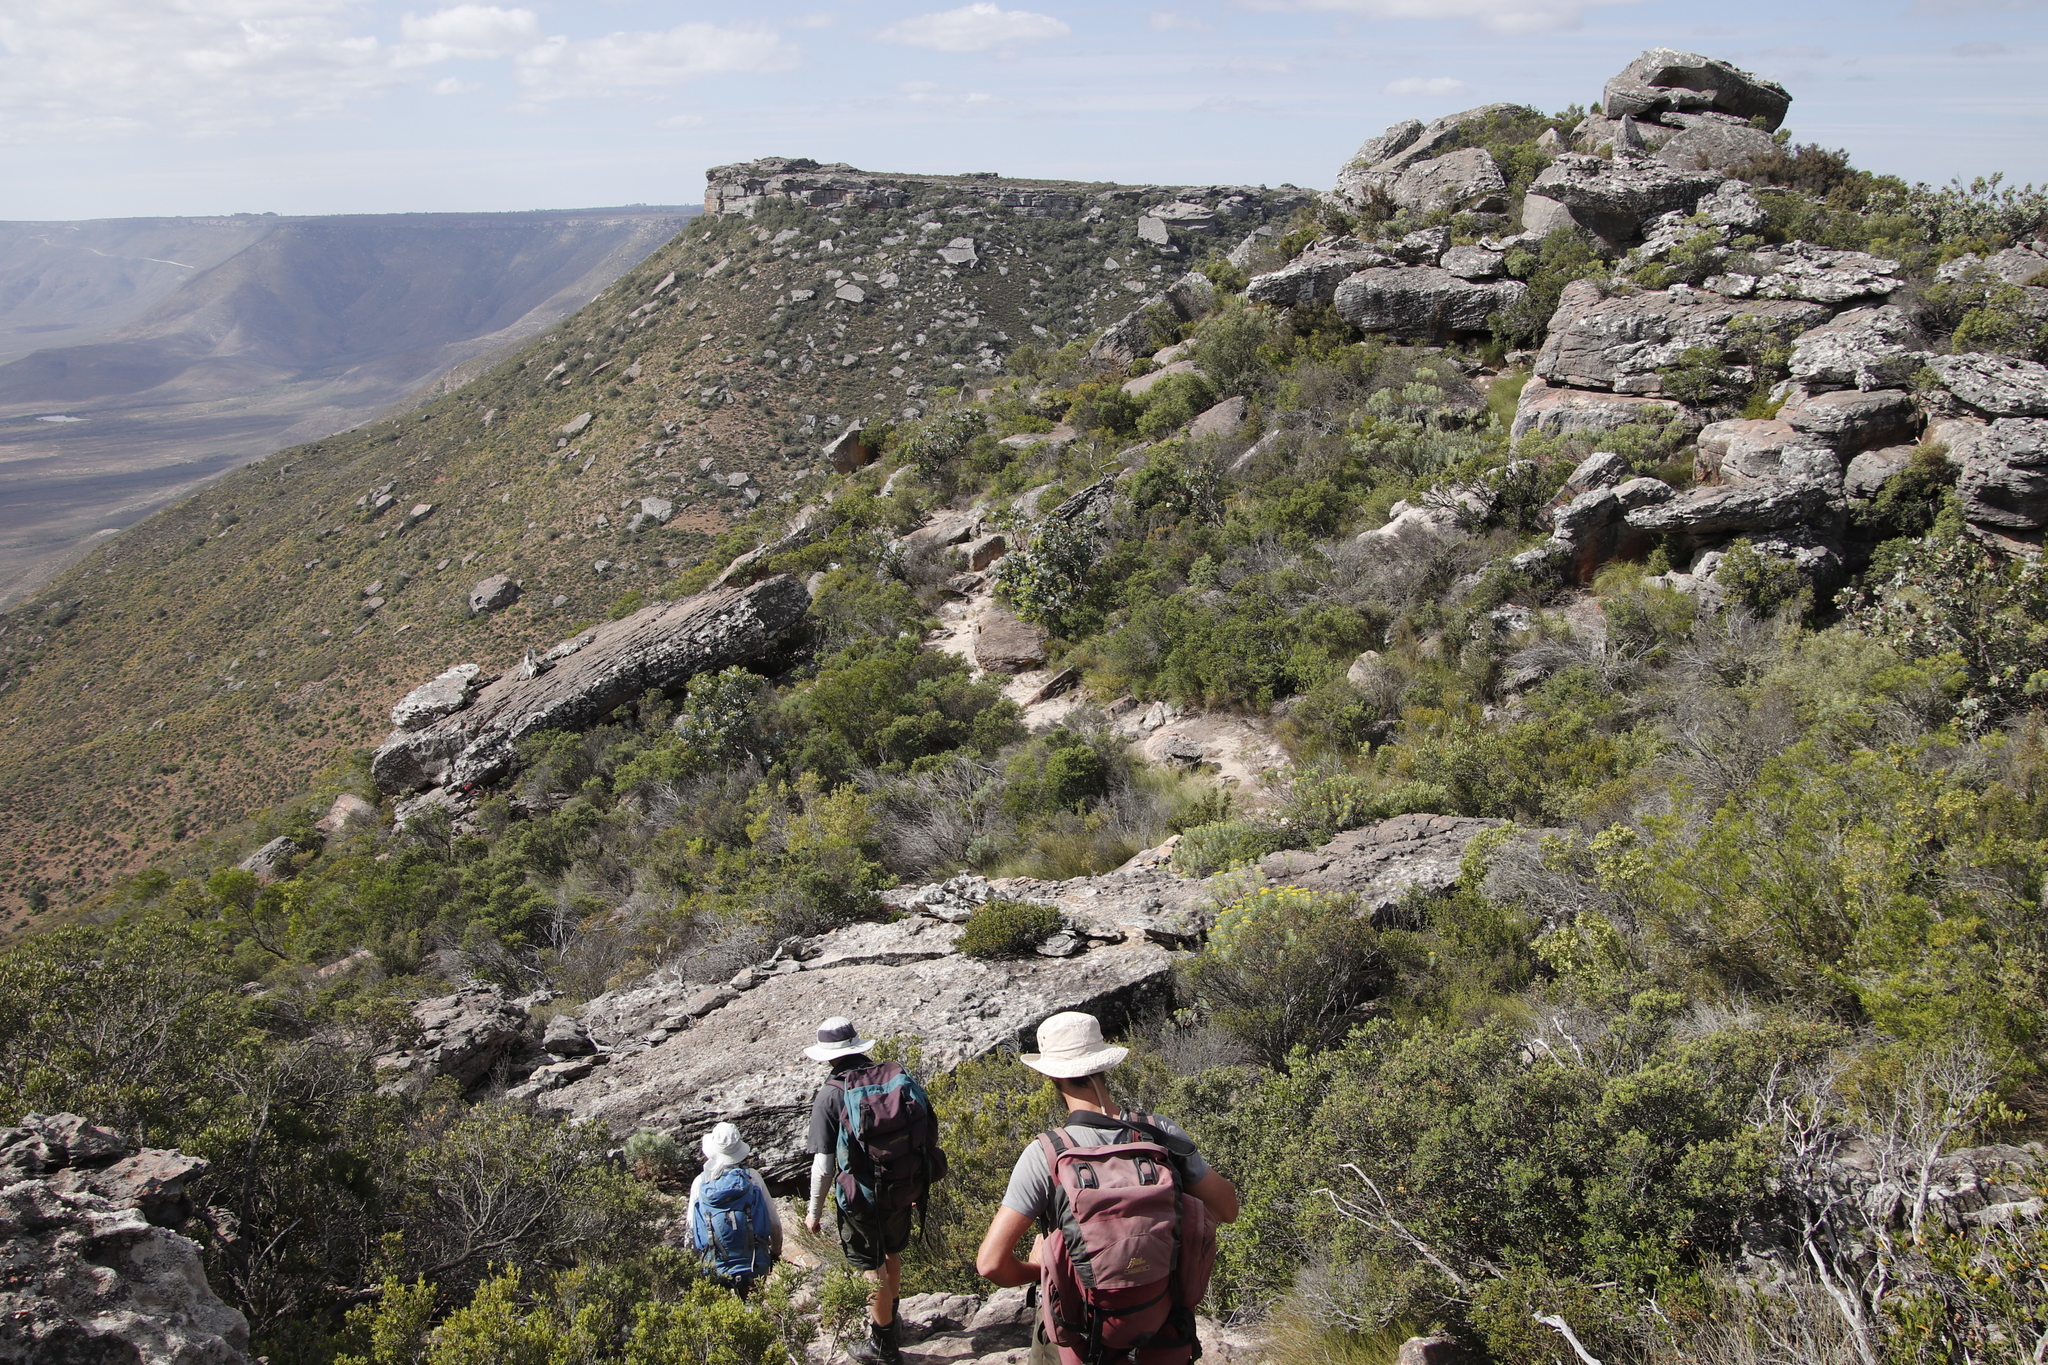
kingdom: Plantae
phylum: Tracheophyta
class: Magnoliopsida
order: Proteales
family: Proteaceae
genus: Protea
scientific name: Protea nitida
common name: Tree protea
